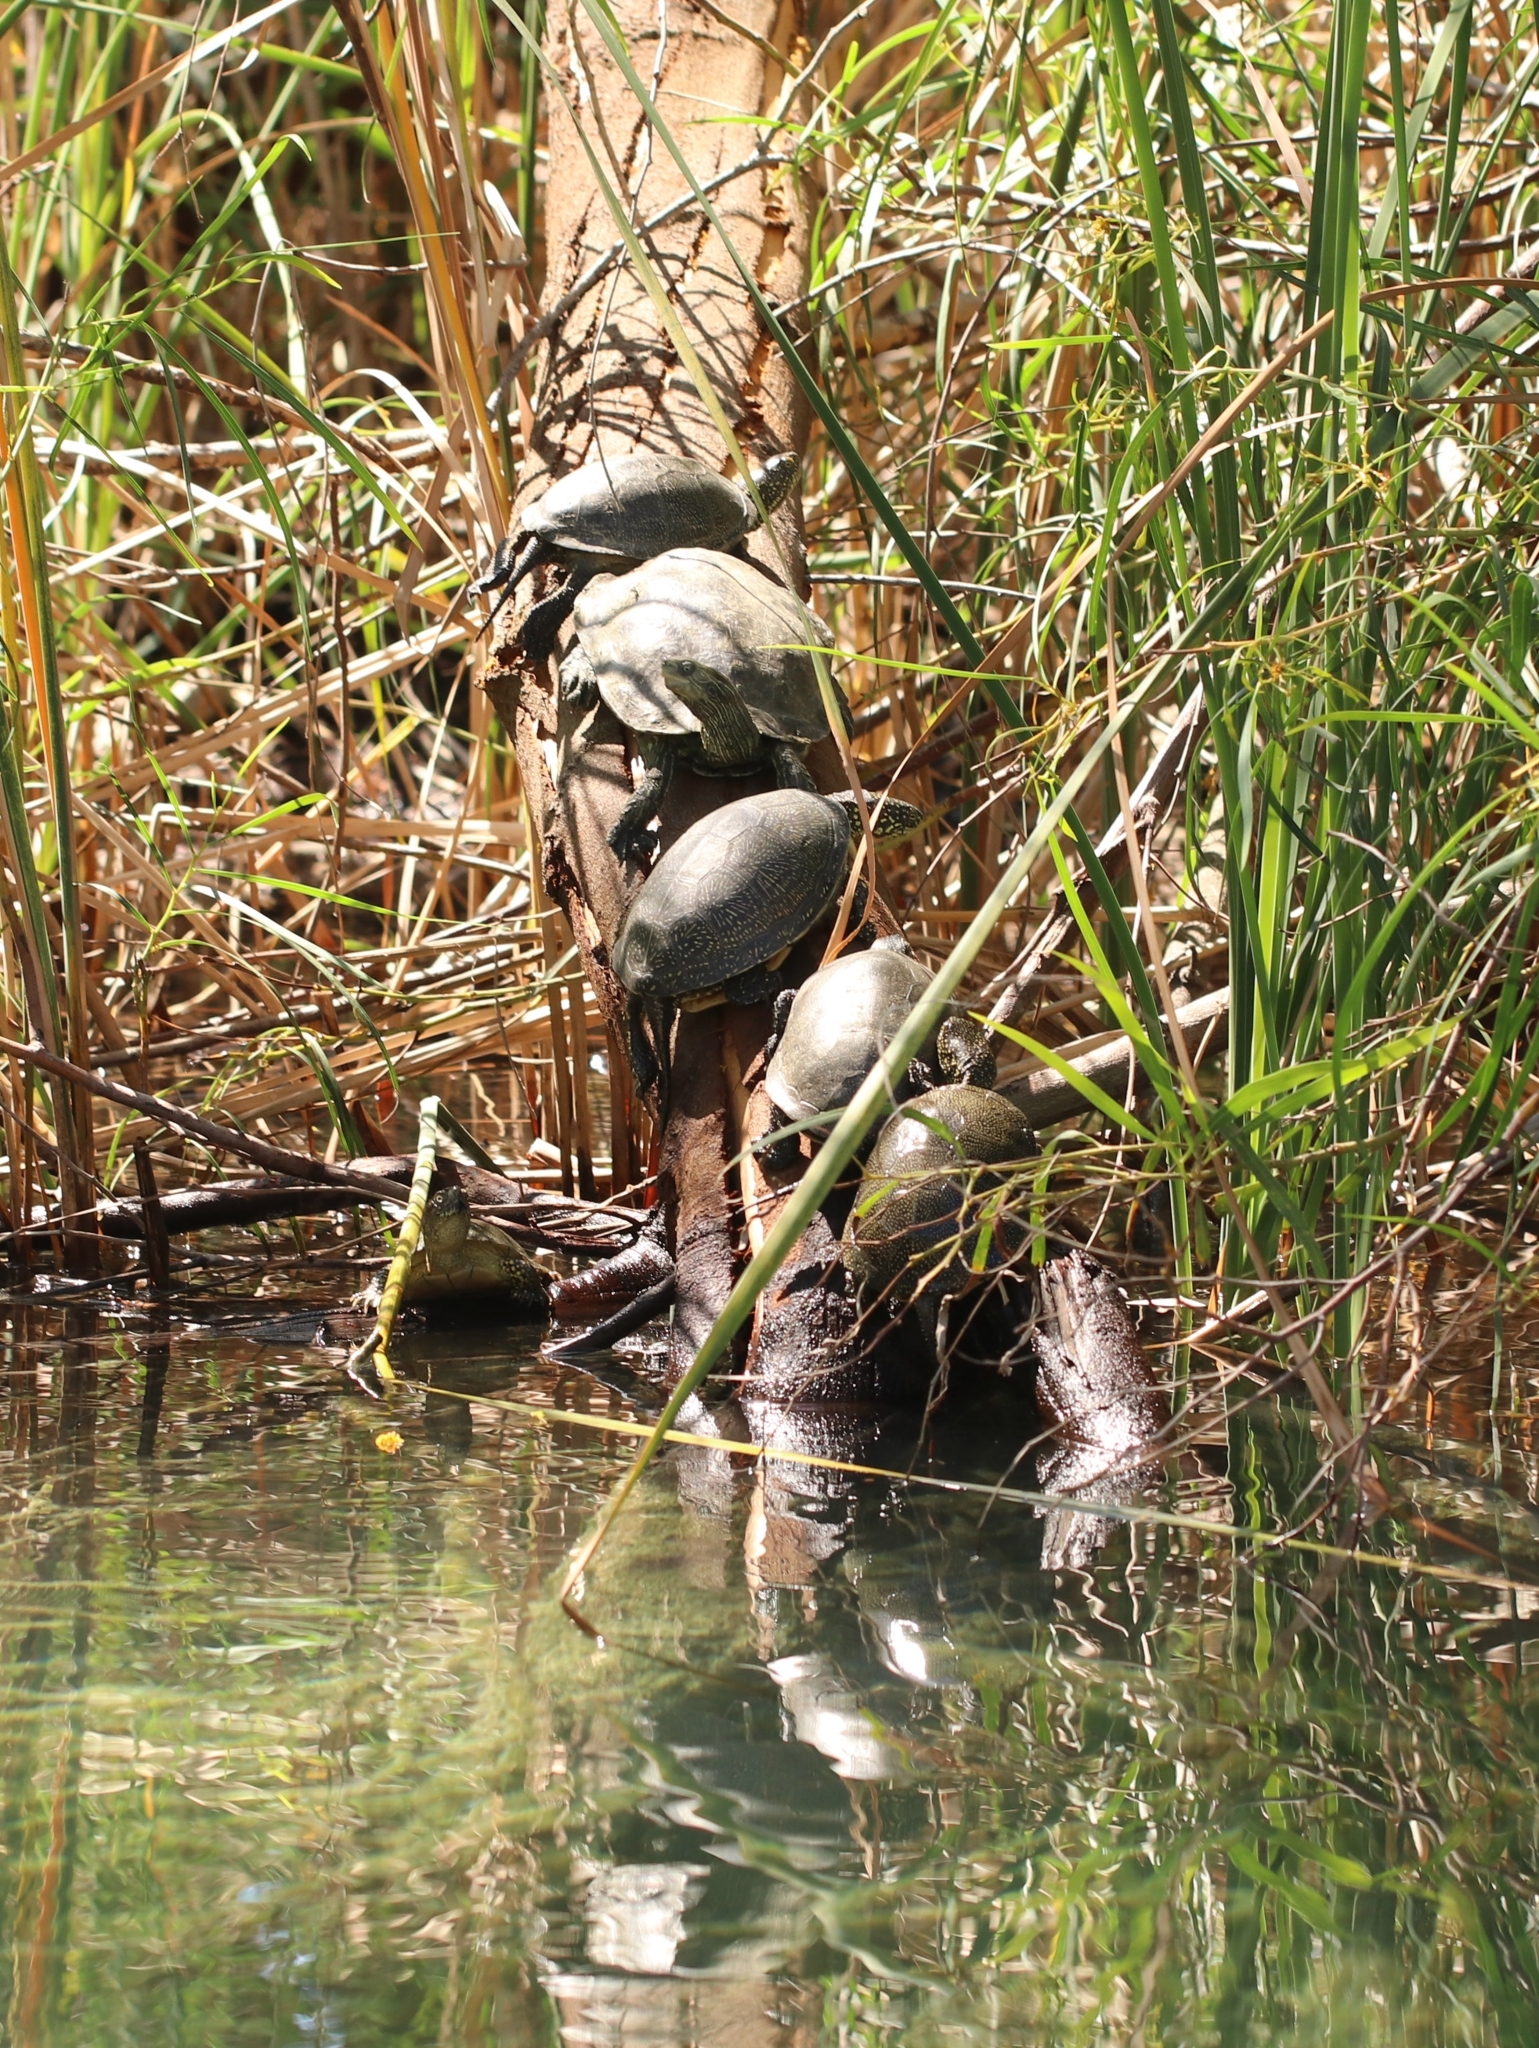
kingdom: Animalia
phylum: Chordata
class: Testudines
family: Geoemydidae
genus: Mauremys
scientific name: Mauremys rivulata
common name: Western caspian turtle
